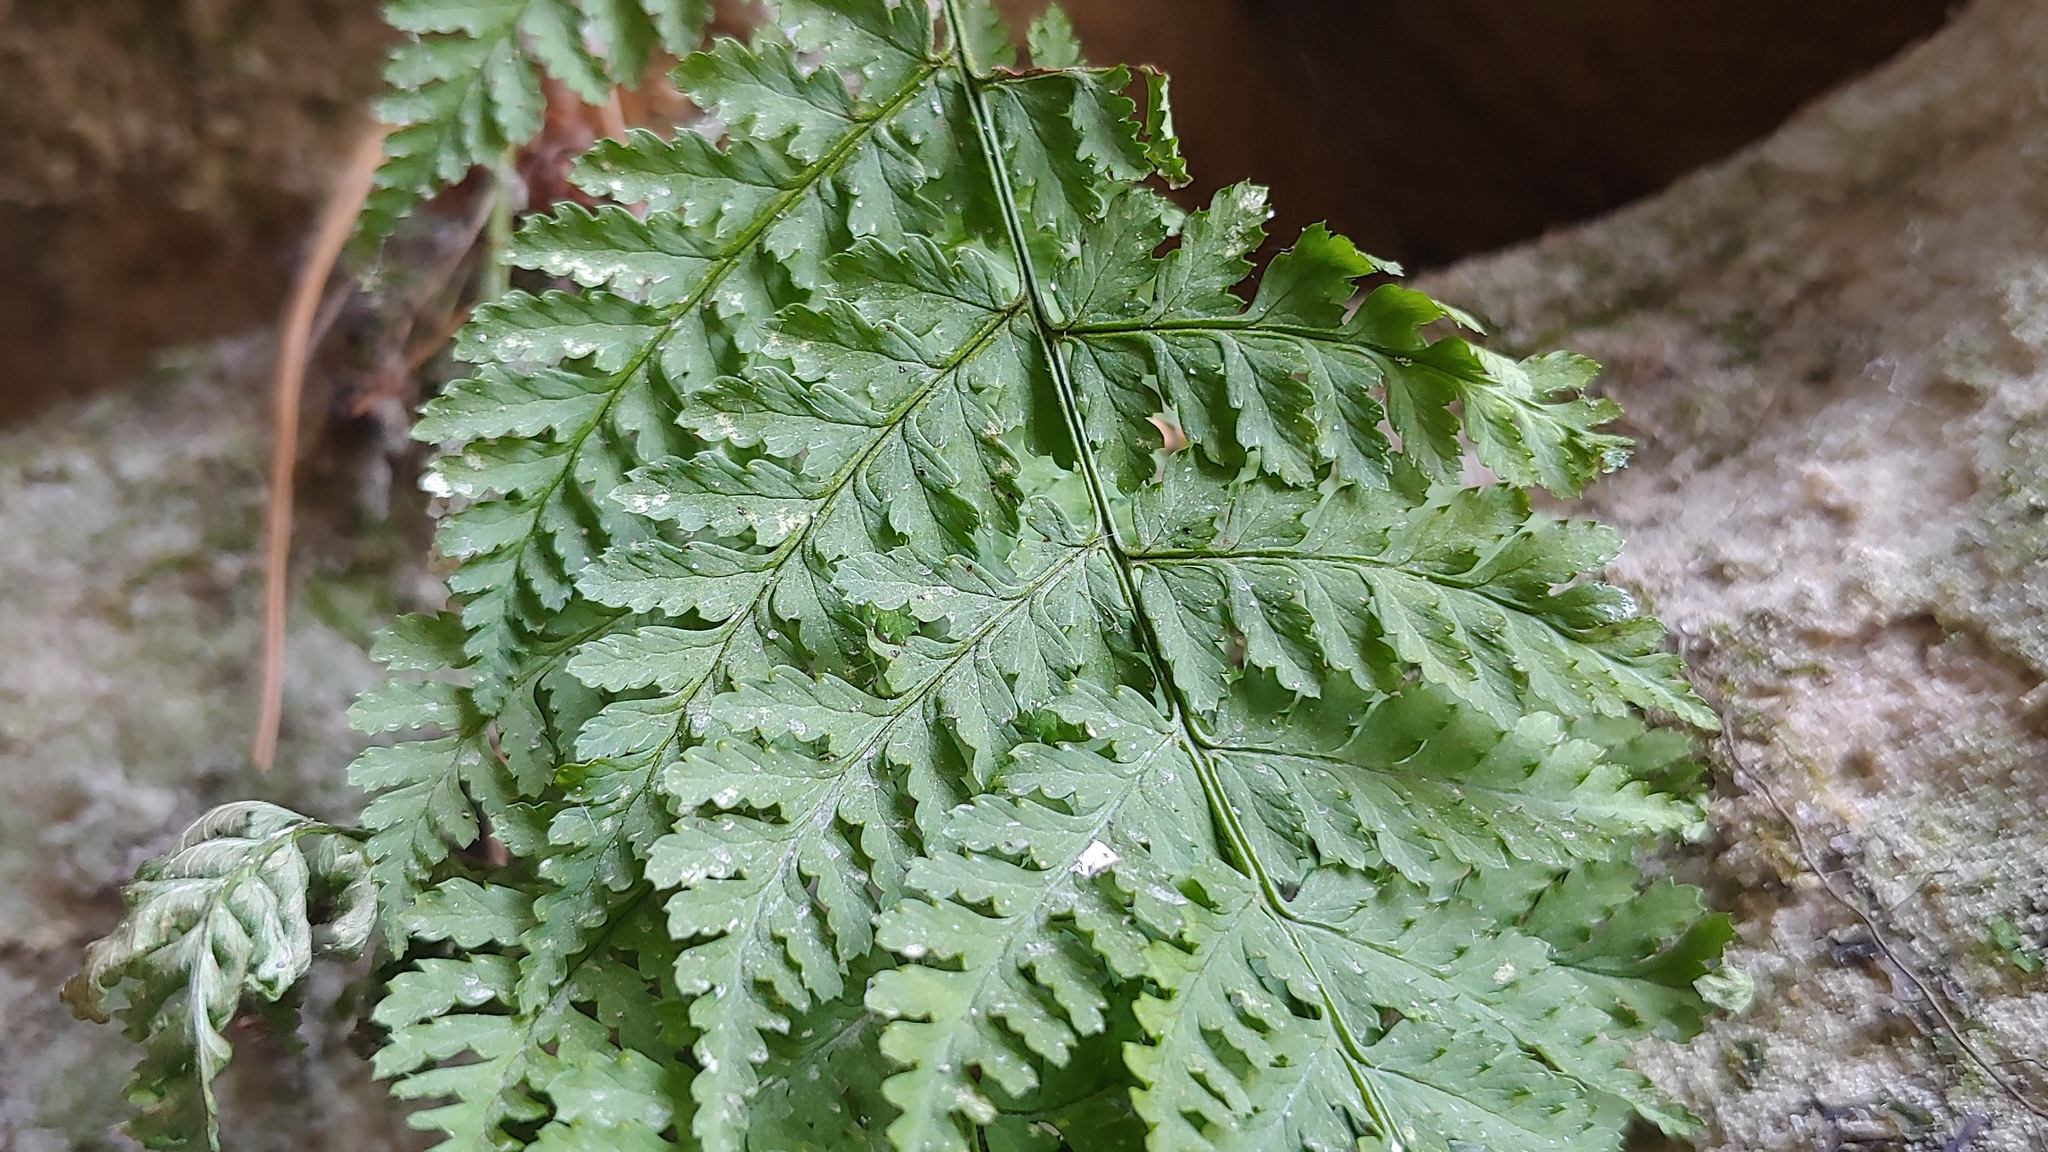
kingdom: Plantae
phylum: Tracheophyta
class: Polypodiopsida
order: Polypodiales
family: Dryopteridaceae
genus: Dryopteris
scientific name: Dryopteris intermedia
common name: Evergreen wood fern
